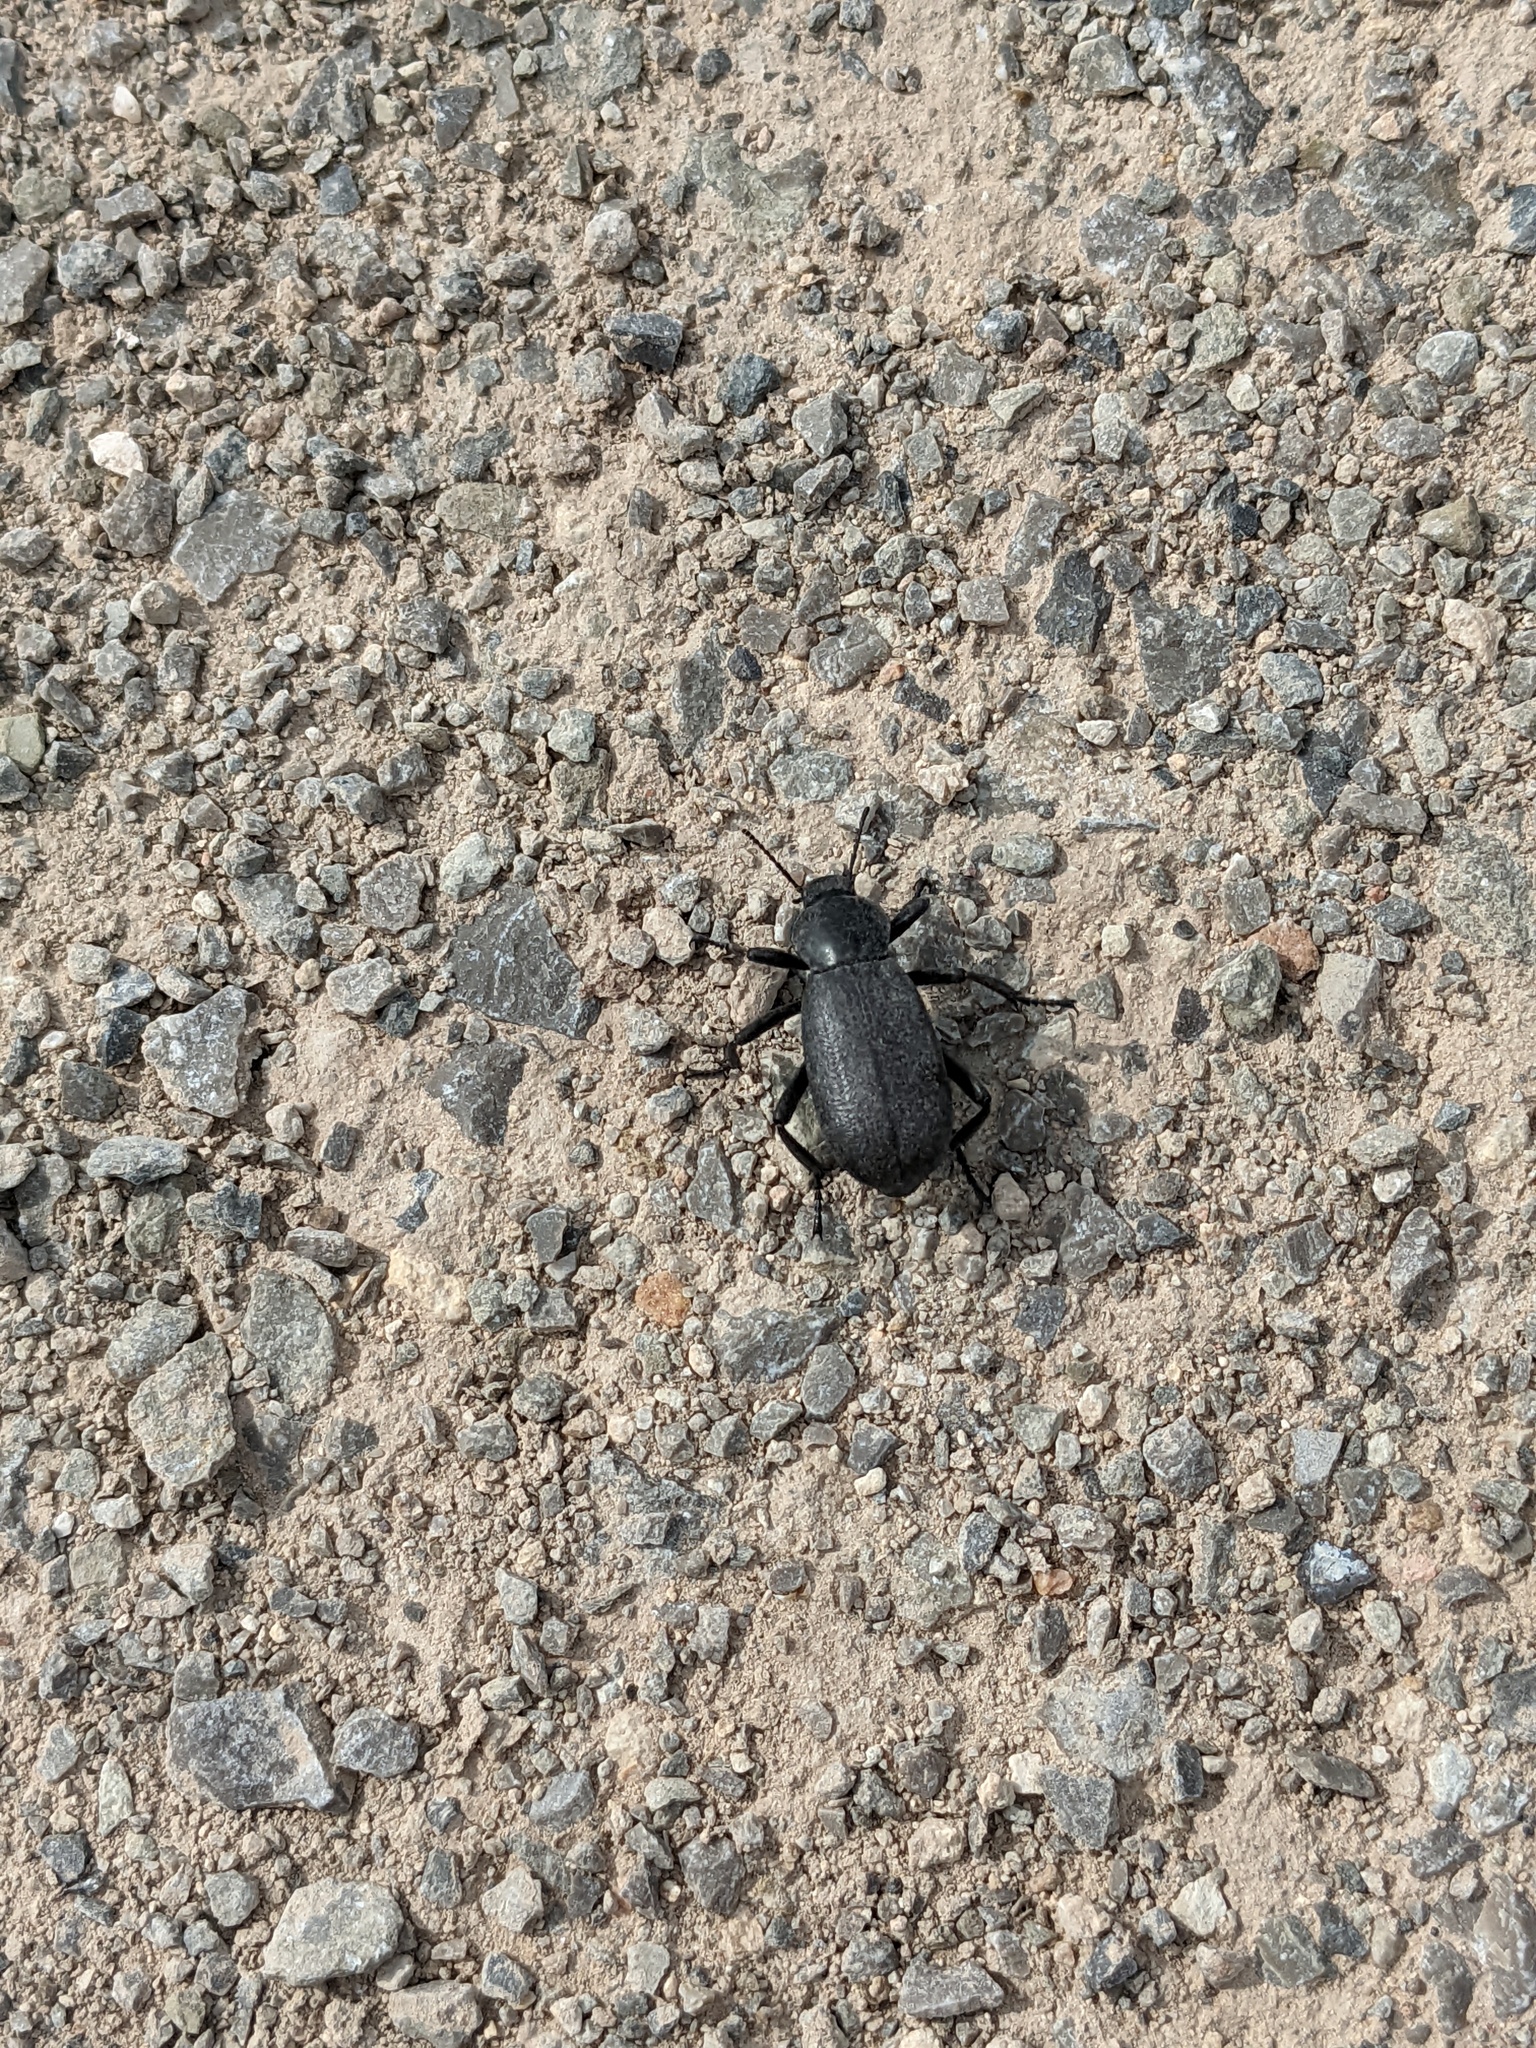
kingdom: Animalia
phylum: Arthropoda
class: Insecta
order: Coleoptera
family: Tenebrionidae
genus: Eleodes
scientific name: Eleodes obscura
